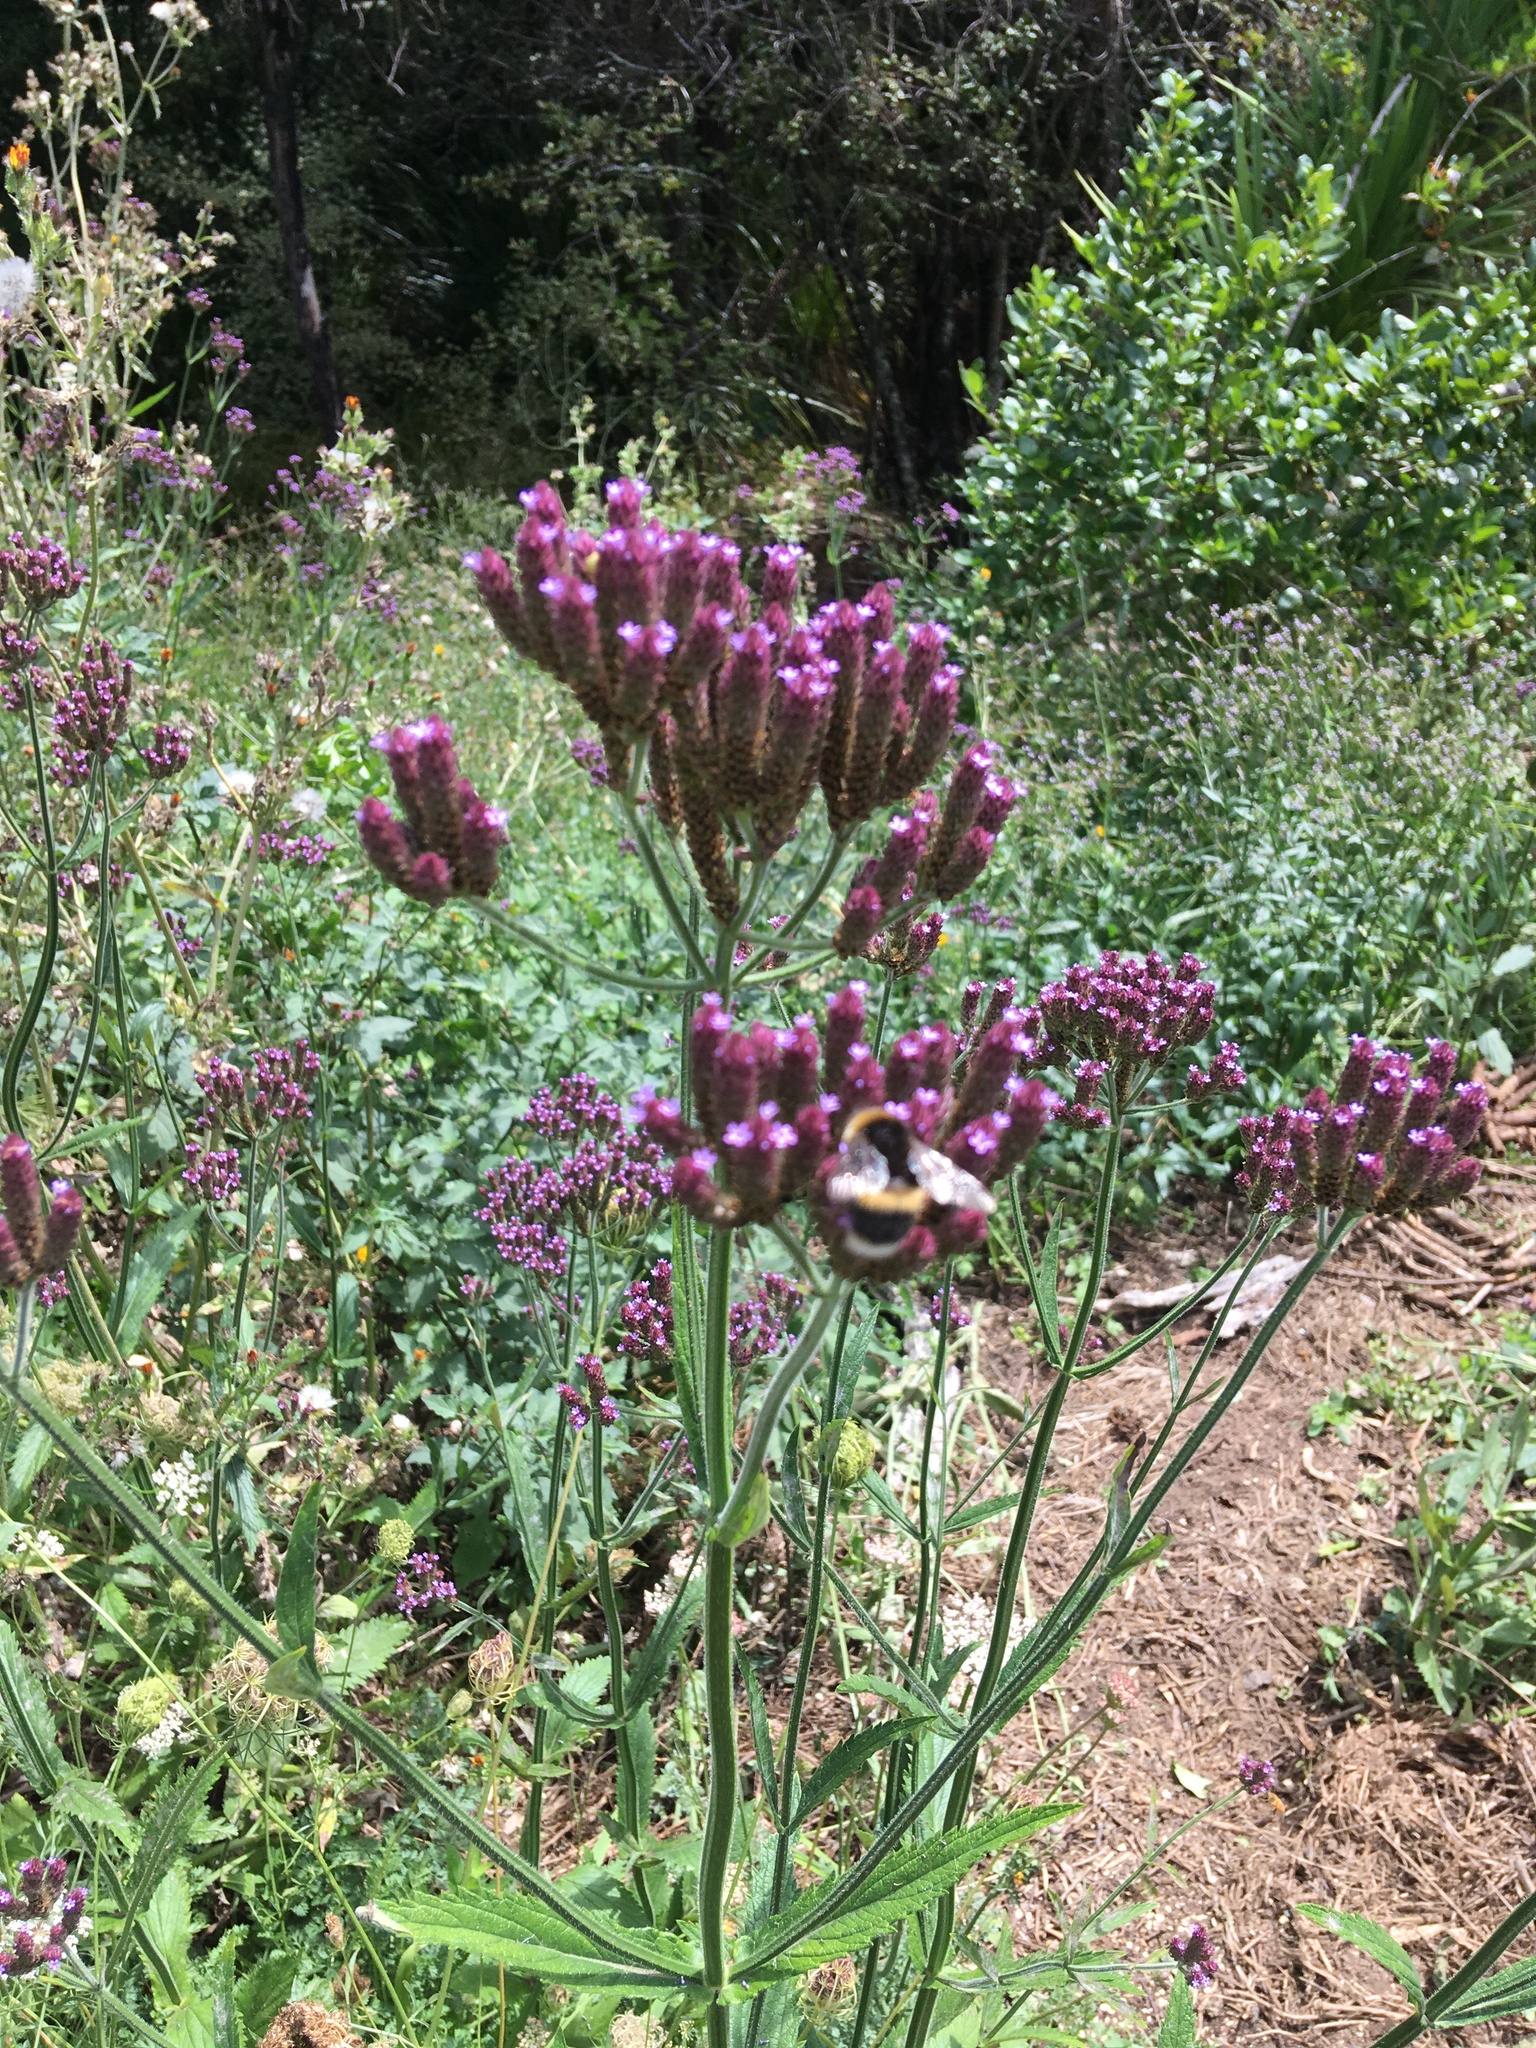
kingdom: Animalia
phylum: Arthropoda
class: Insecta
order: Hymenoptera
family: Apidae
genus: Bombus
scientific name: Bombus terrestris
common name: Buff-tailed bumblebee
